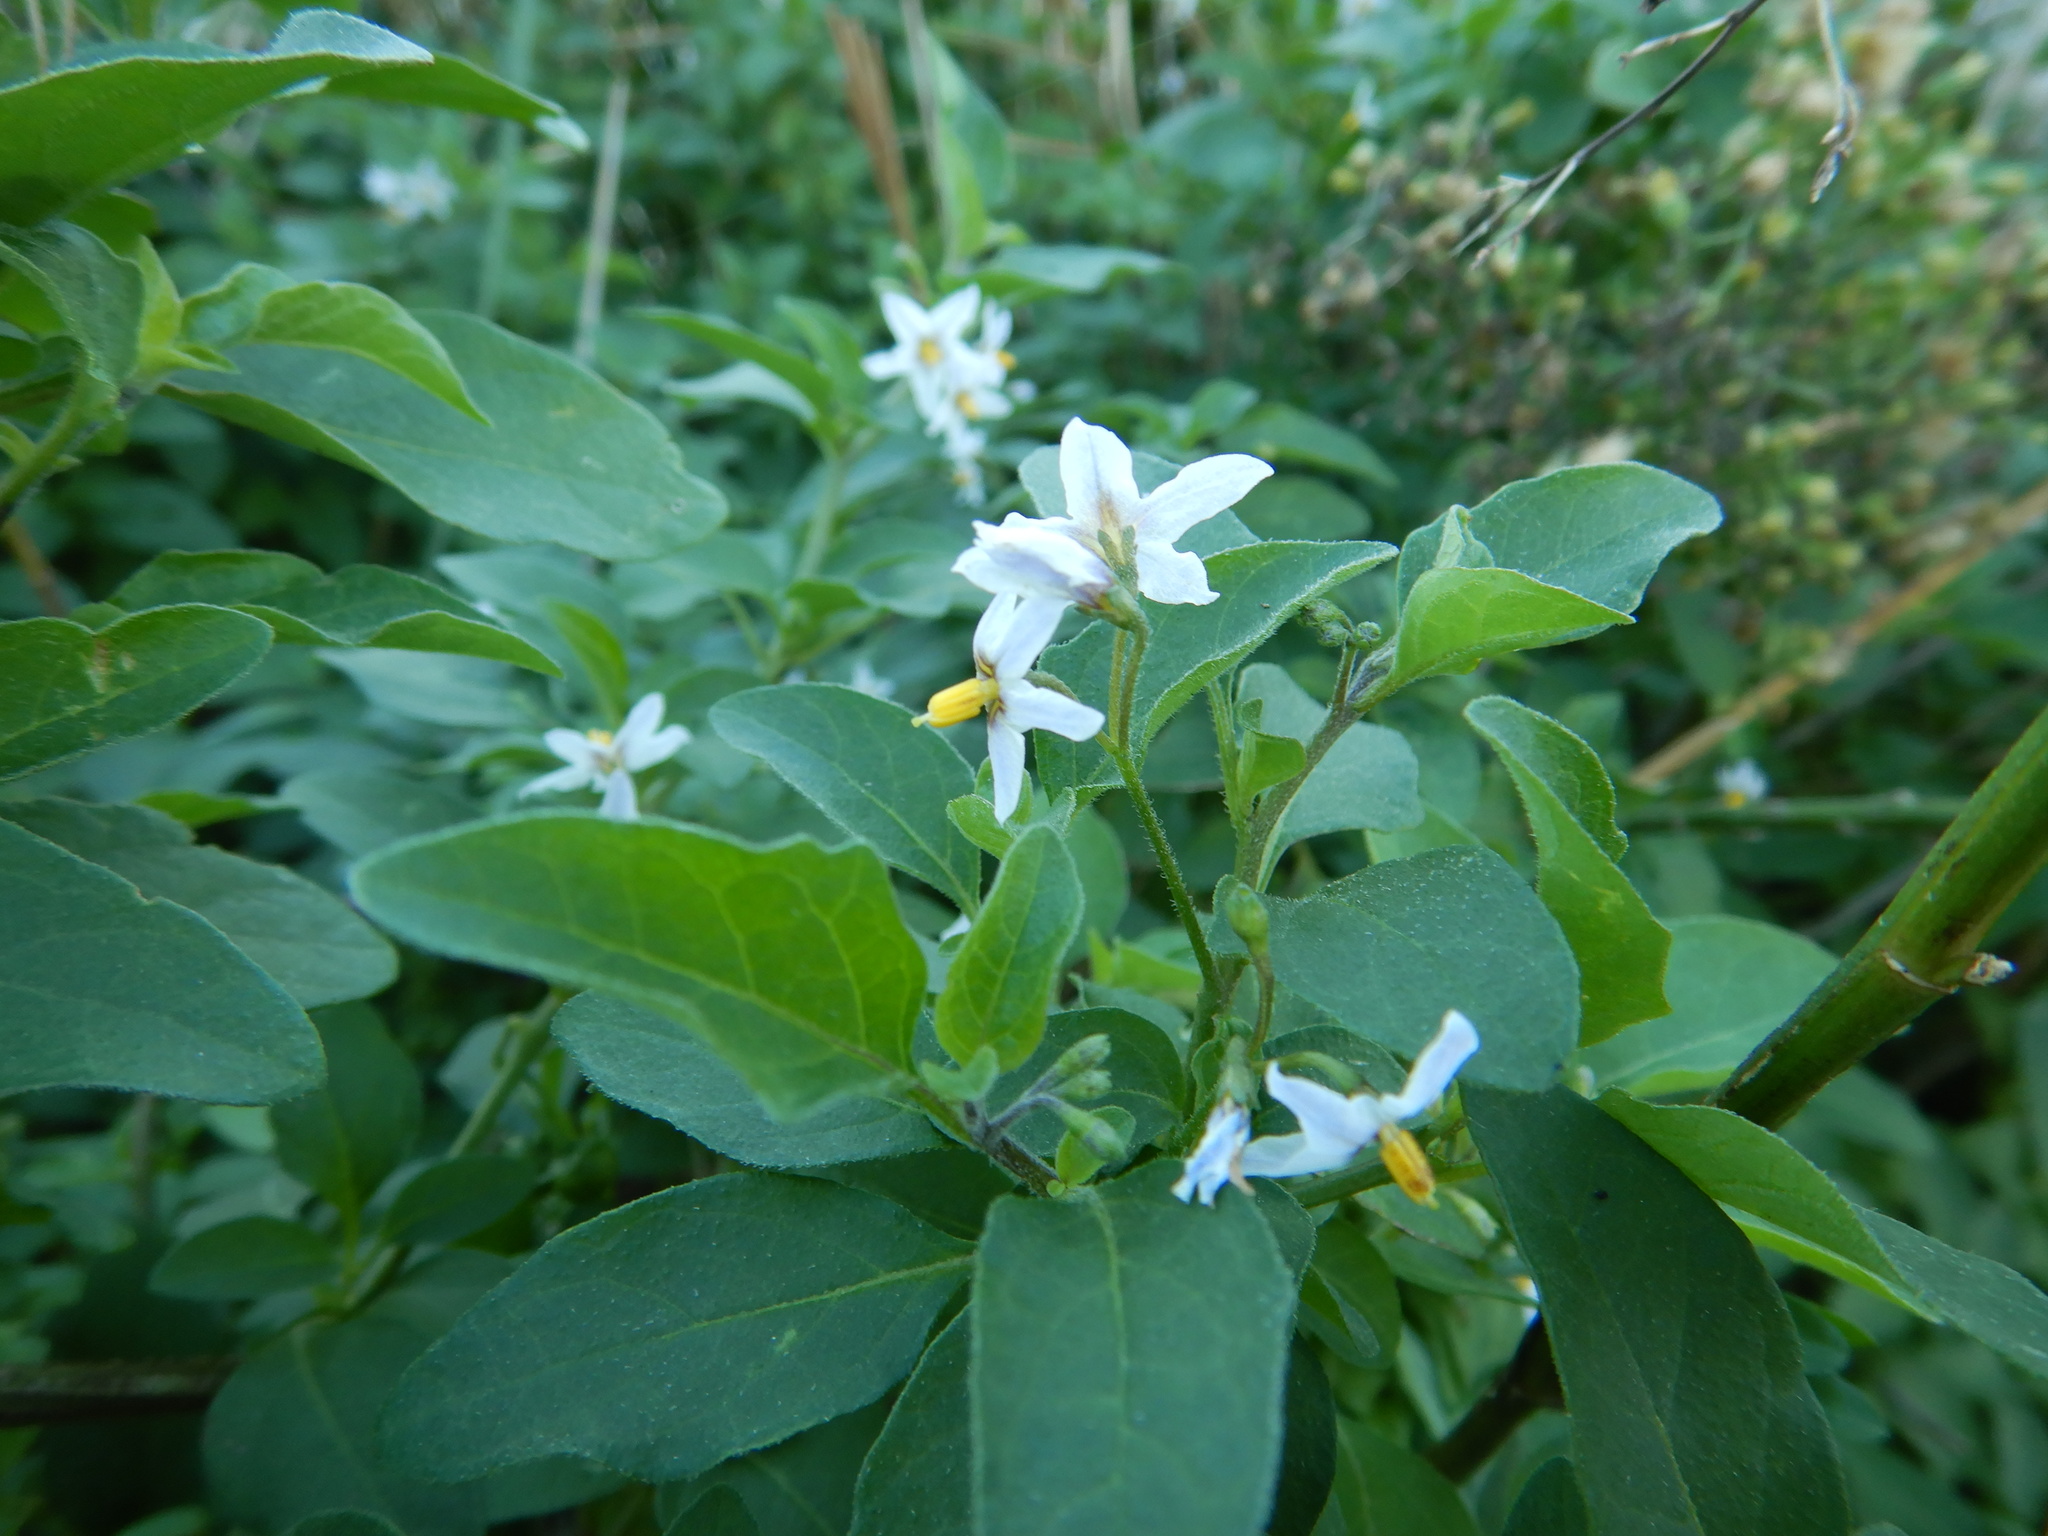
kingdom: Plantae
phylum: Tracheophyta
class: Magnoliopsida
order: Solanales
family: Solanaceae
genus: Solanum
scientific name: Solanum chenopodioides
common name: Tall nightshade
